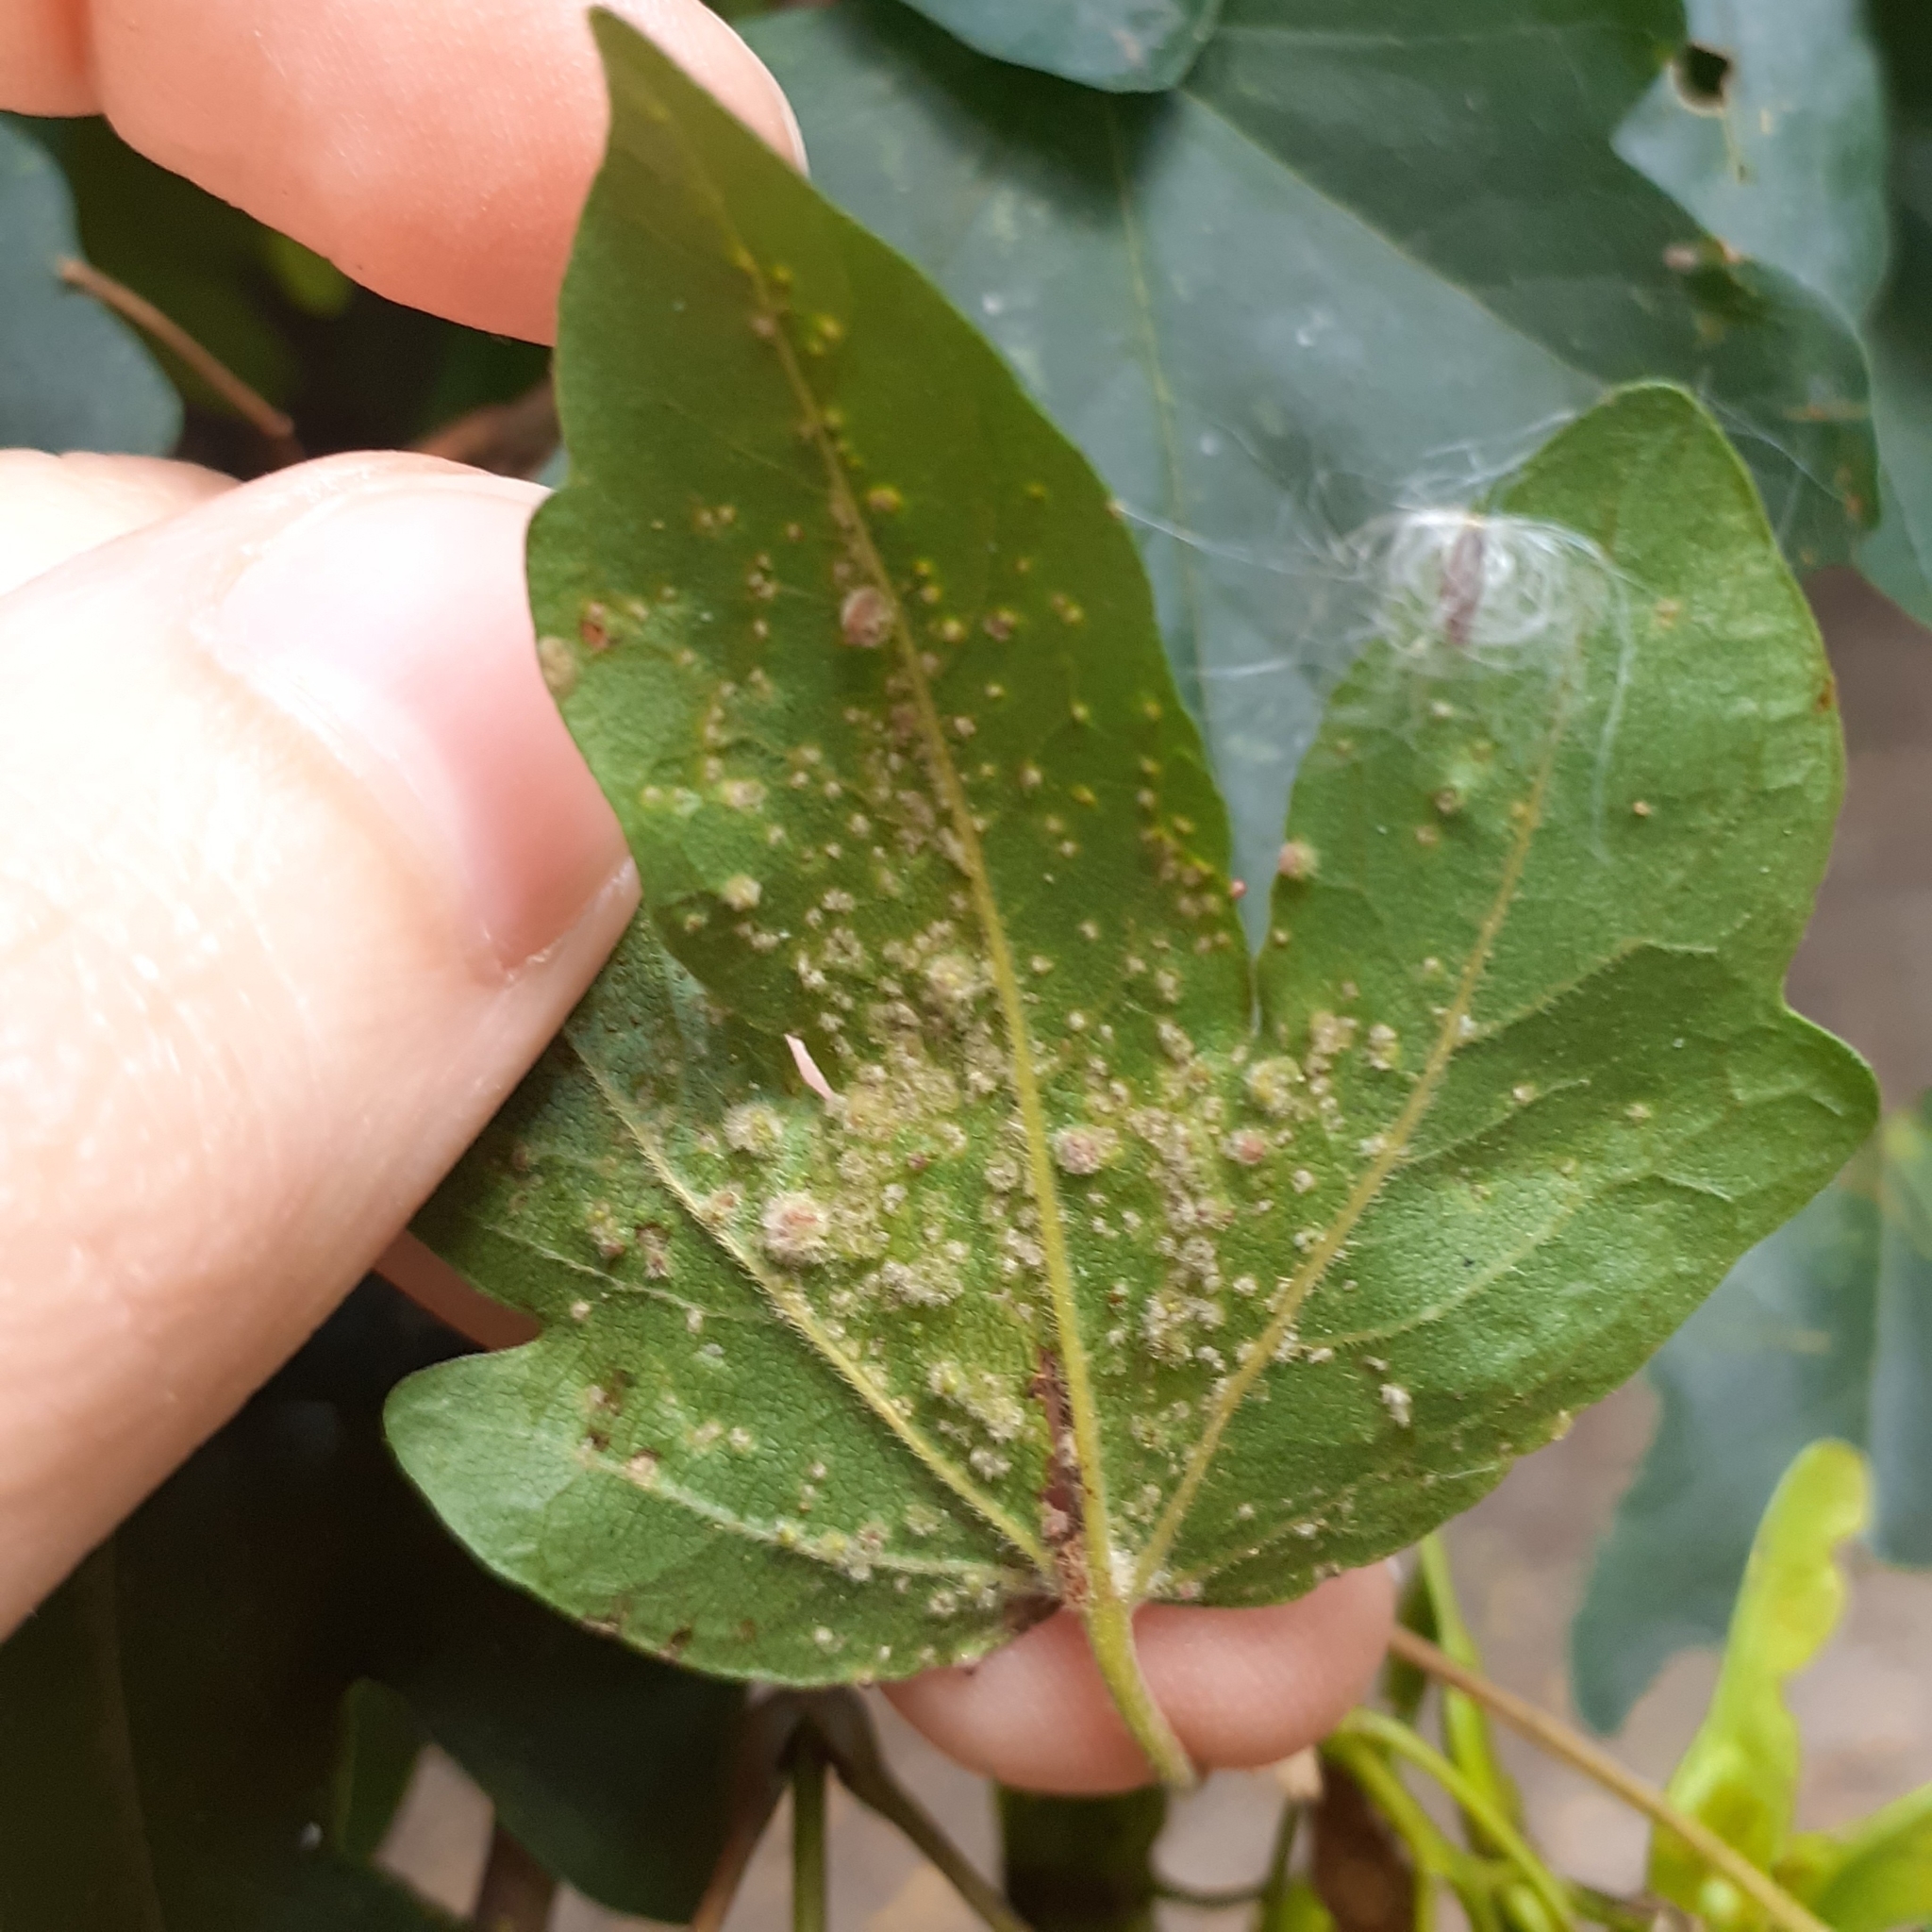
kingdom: Animalia
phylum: Arthropoda
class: Arachnida
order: Trombidiformes
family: Eriophyidae
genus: Aceria
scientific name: Aceria myriadeum
